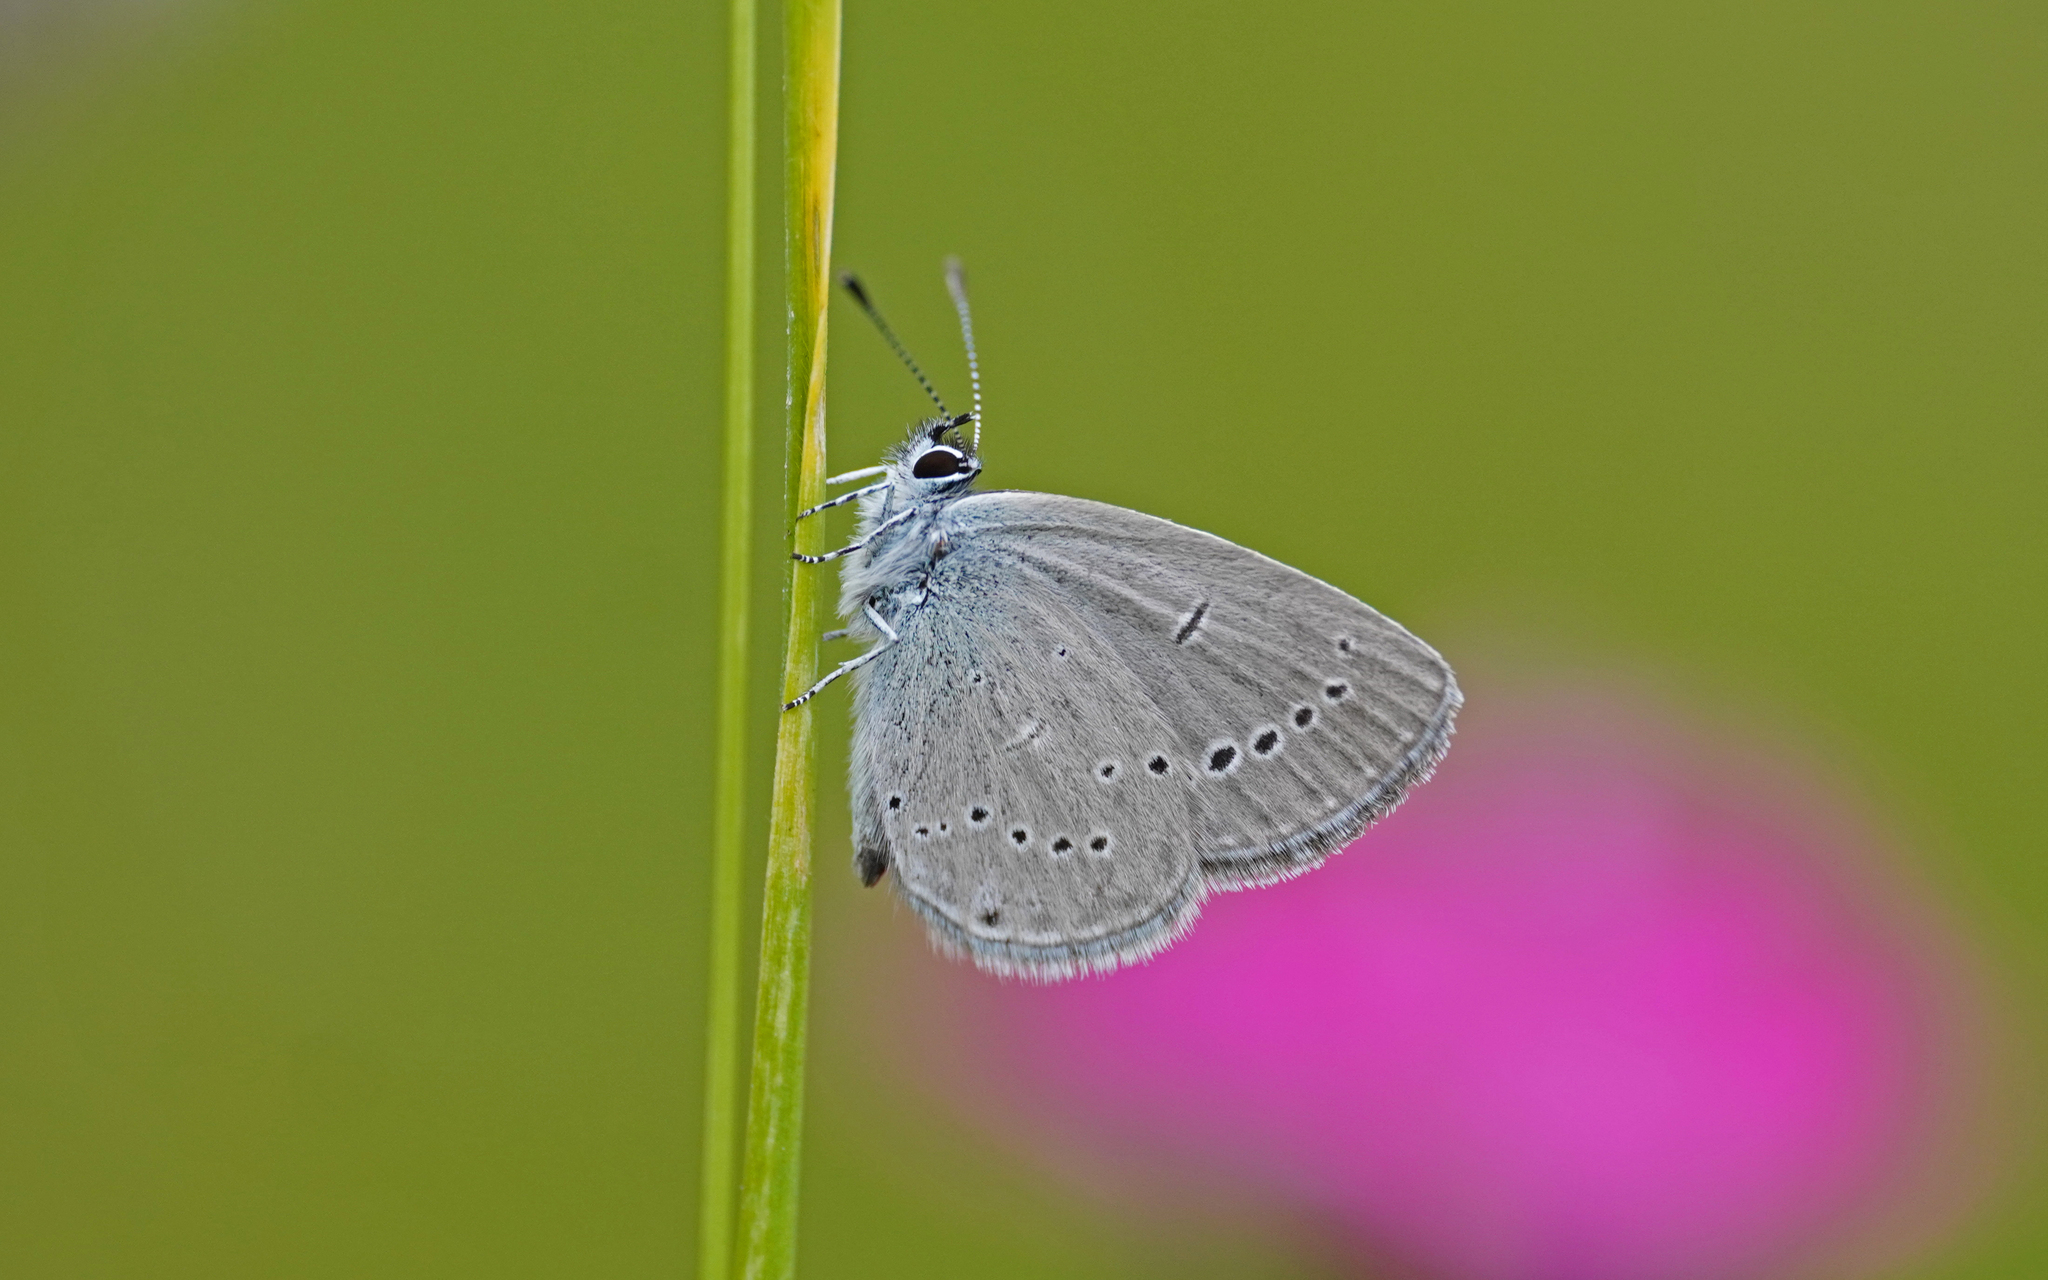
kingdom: Animalia
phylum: Arthropoda
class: Insecta
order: Lepidoptera
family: Lycaenidae
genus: Cupido
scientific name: Cupido minimus
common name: Small blue
